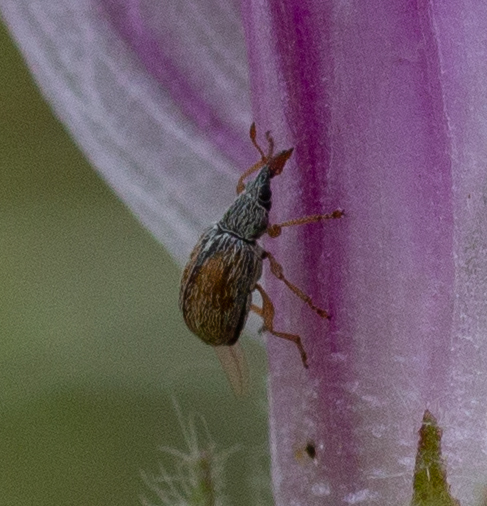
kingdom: Animalia
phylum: Arthropoda
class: Insecta
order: Coleoptera
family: Apionidae
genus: Malvapion
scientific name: Malvapion malvae
